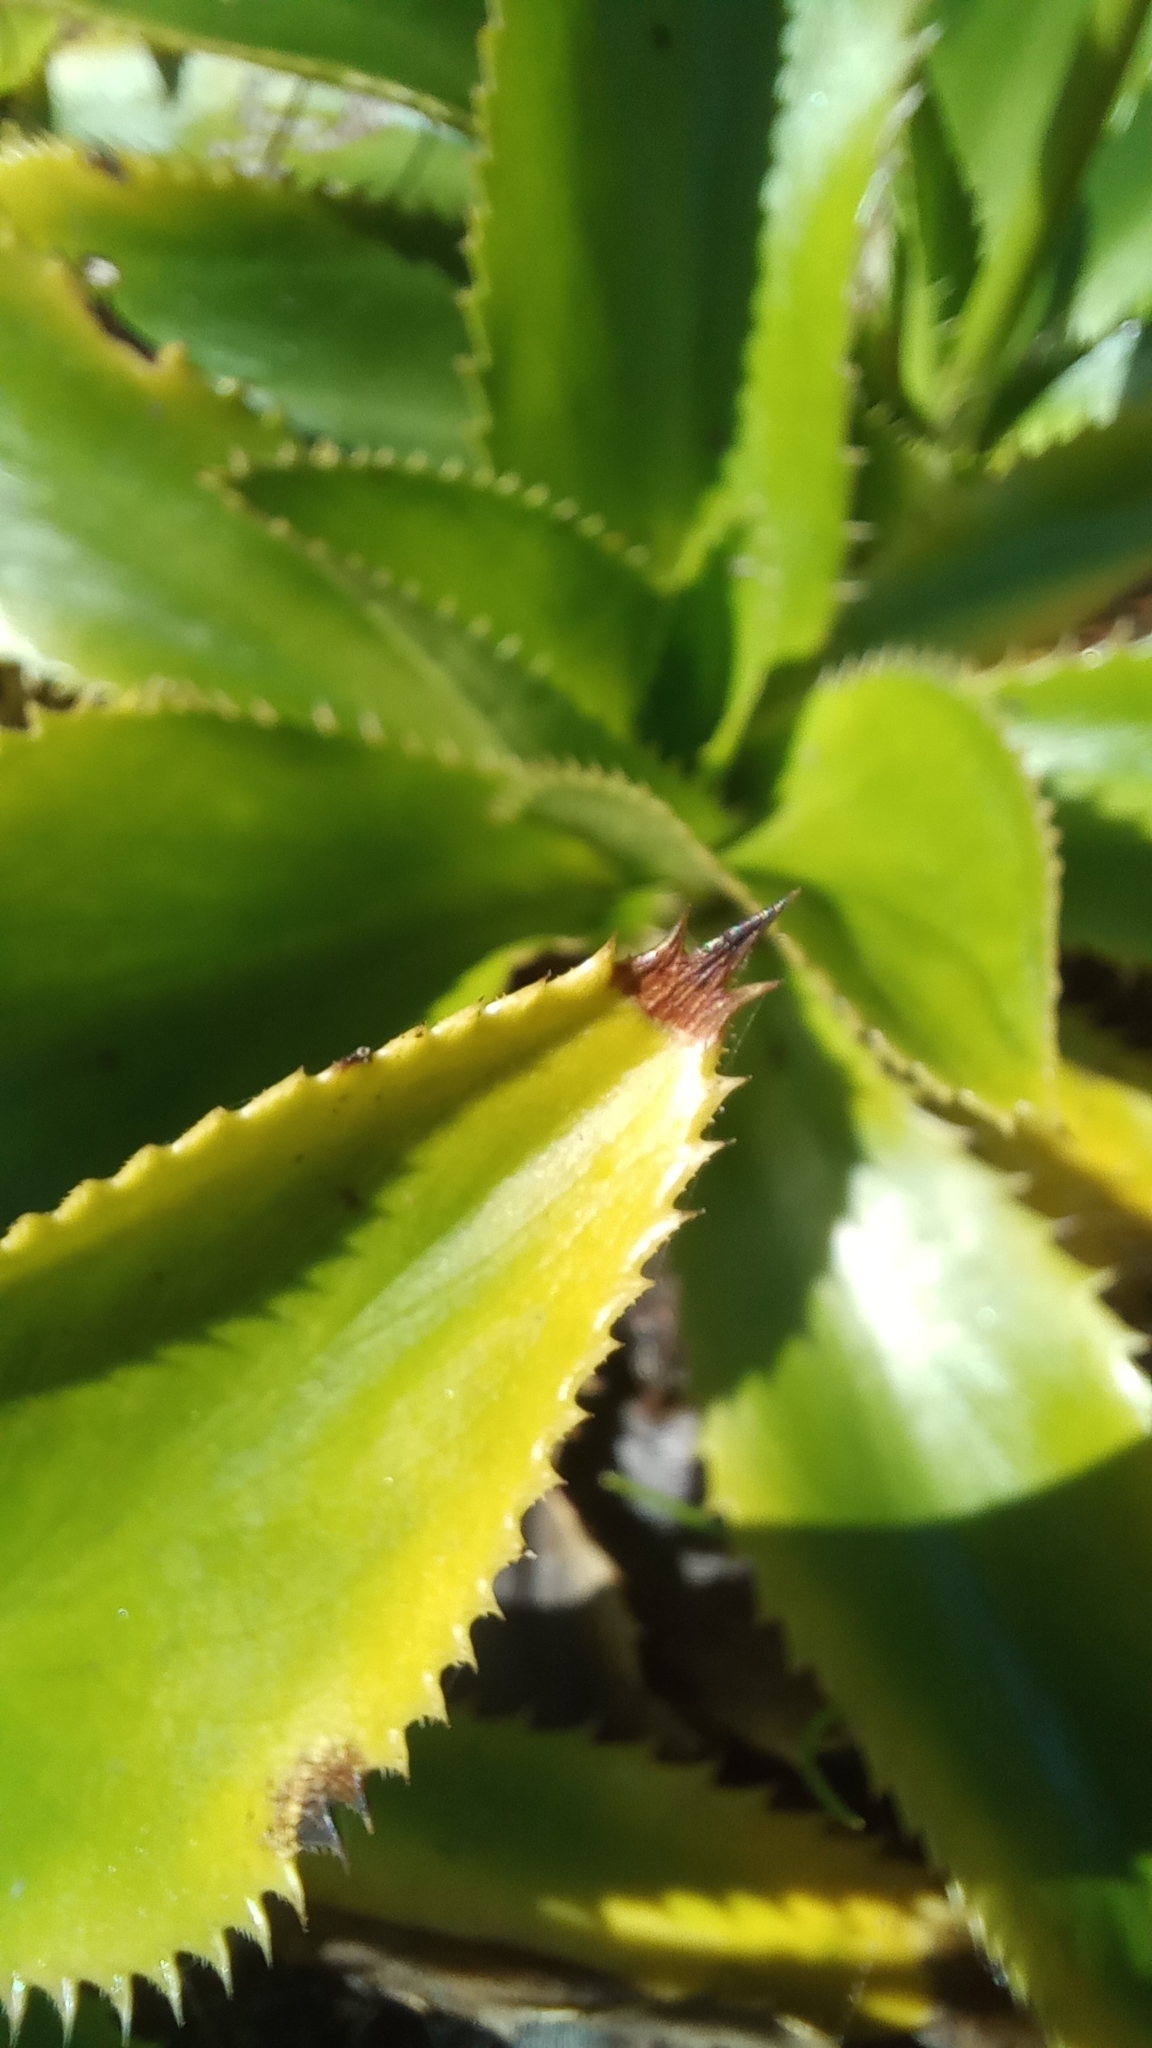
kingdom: Plantae
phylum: Tracheophyta
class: Magnoliopsida
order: Apiales
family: Apiaceae
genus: Eryngium
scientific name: Eryngium elegans
